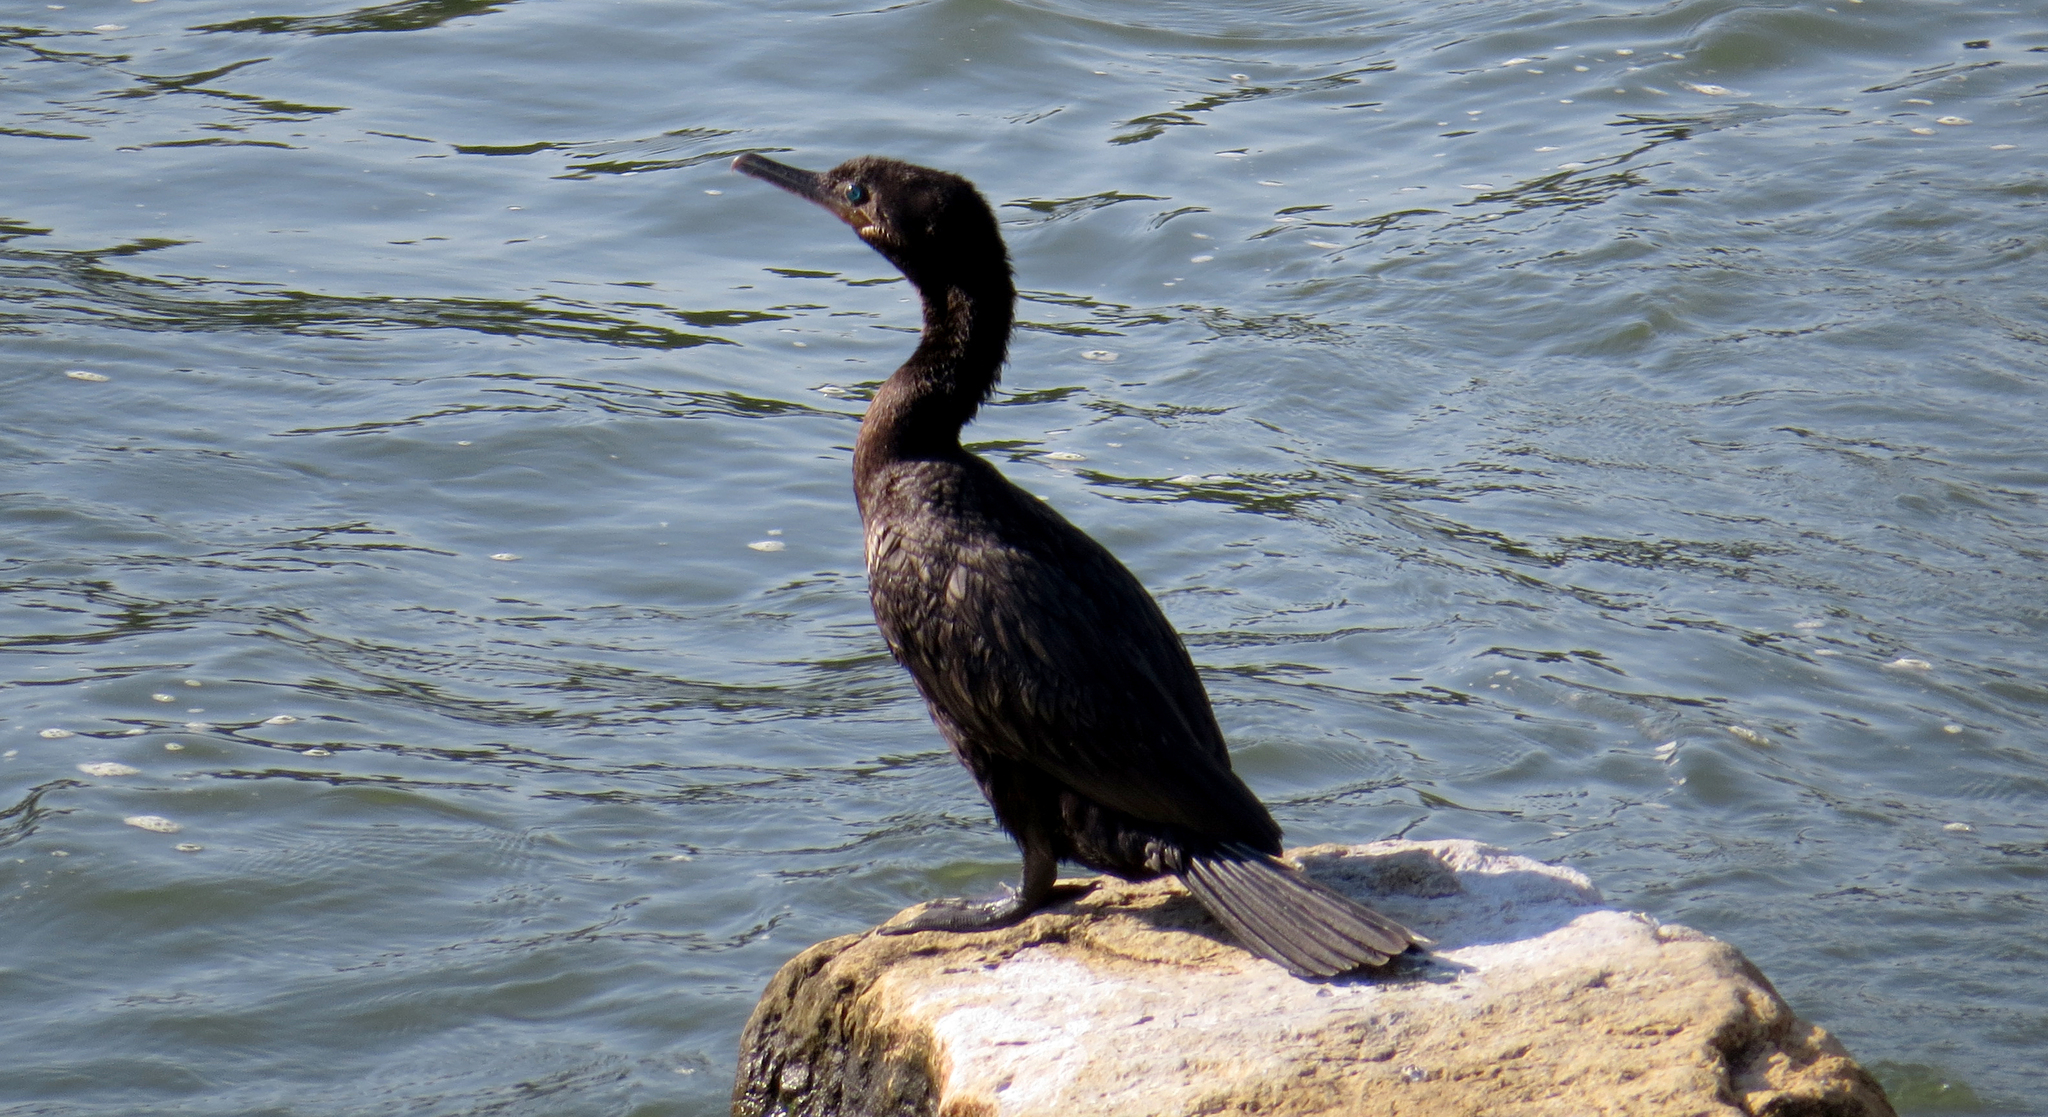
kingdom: Animalia
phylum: Chordata
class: Aves
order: Suliformes
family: Phalacrocoracidae
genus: Phalacrocorax
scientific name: Phalacrocorax brasilianus
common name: Neotropic cormorant
